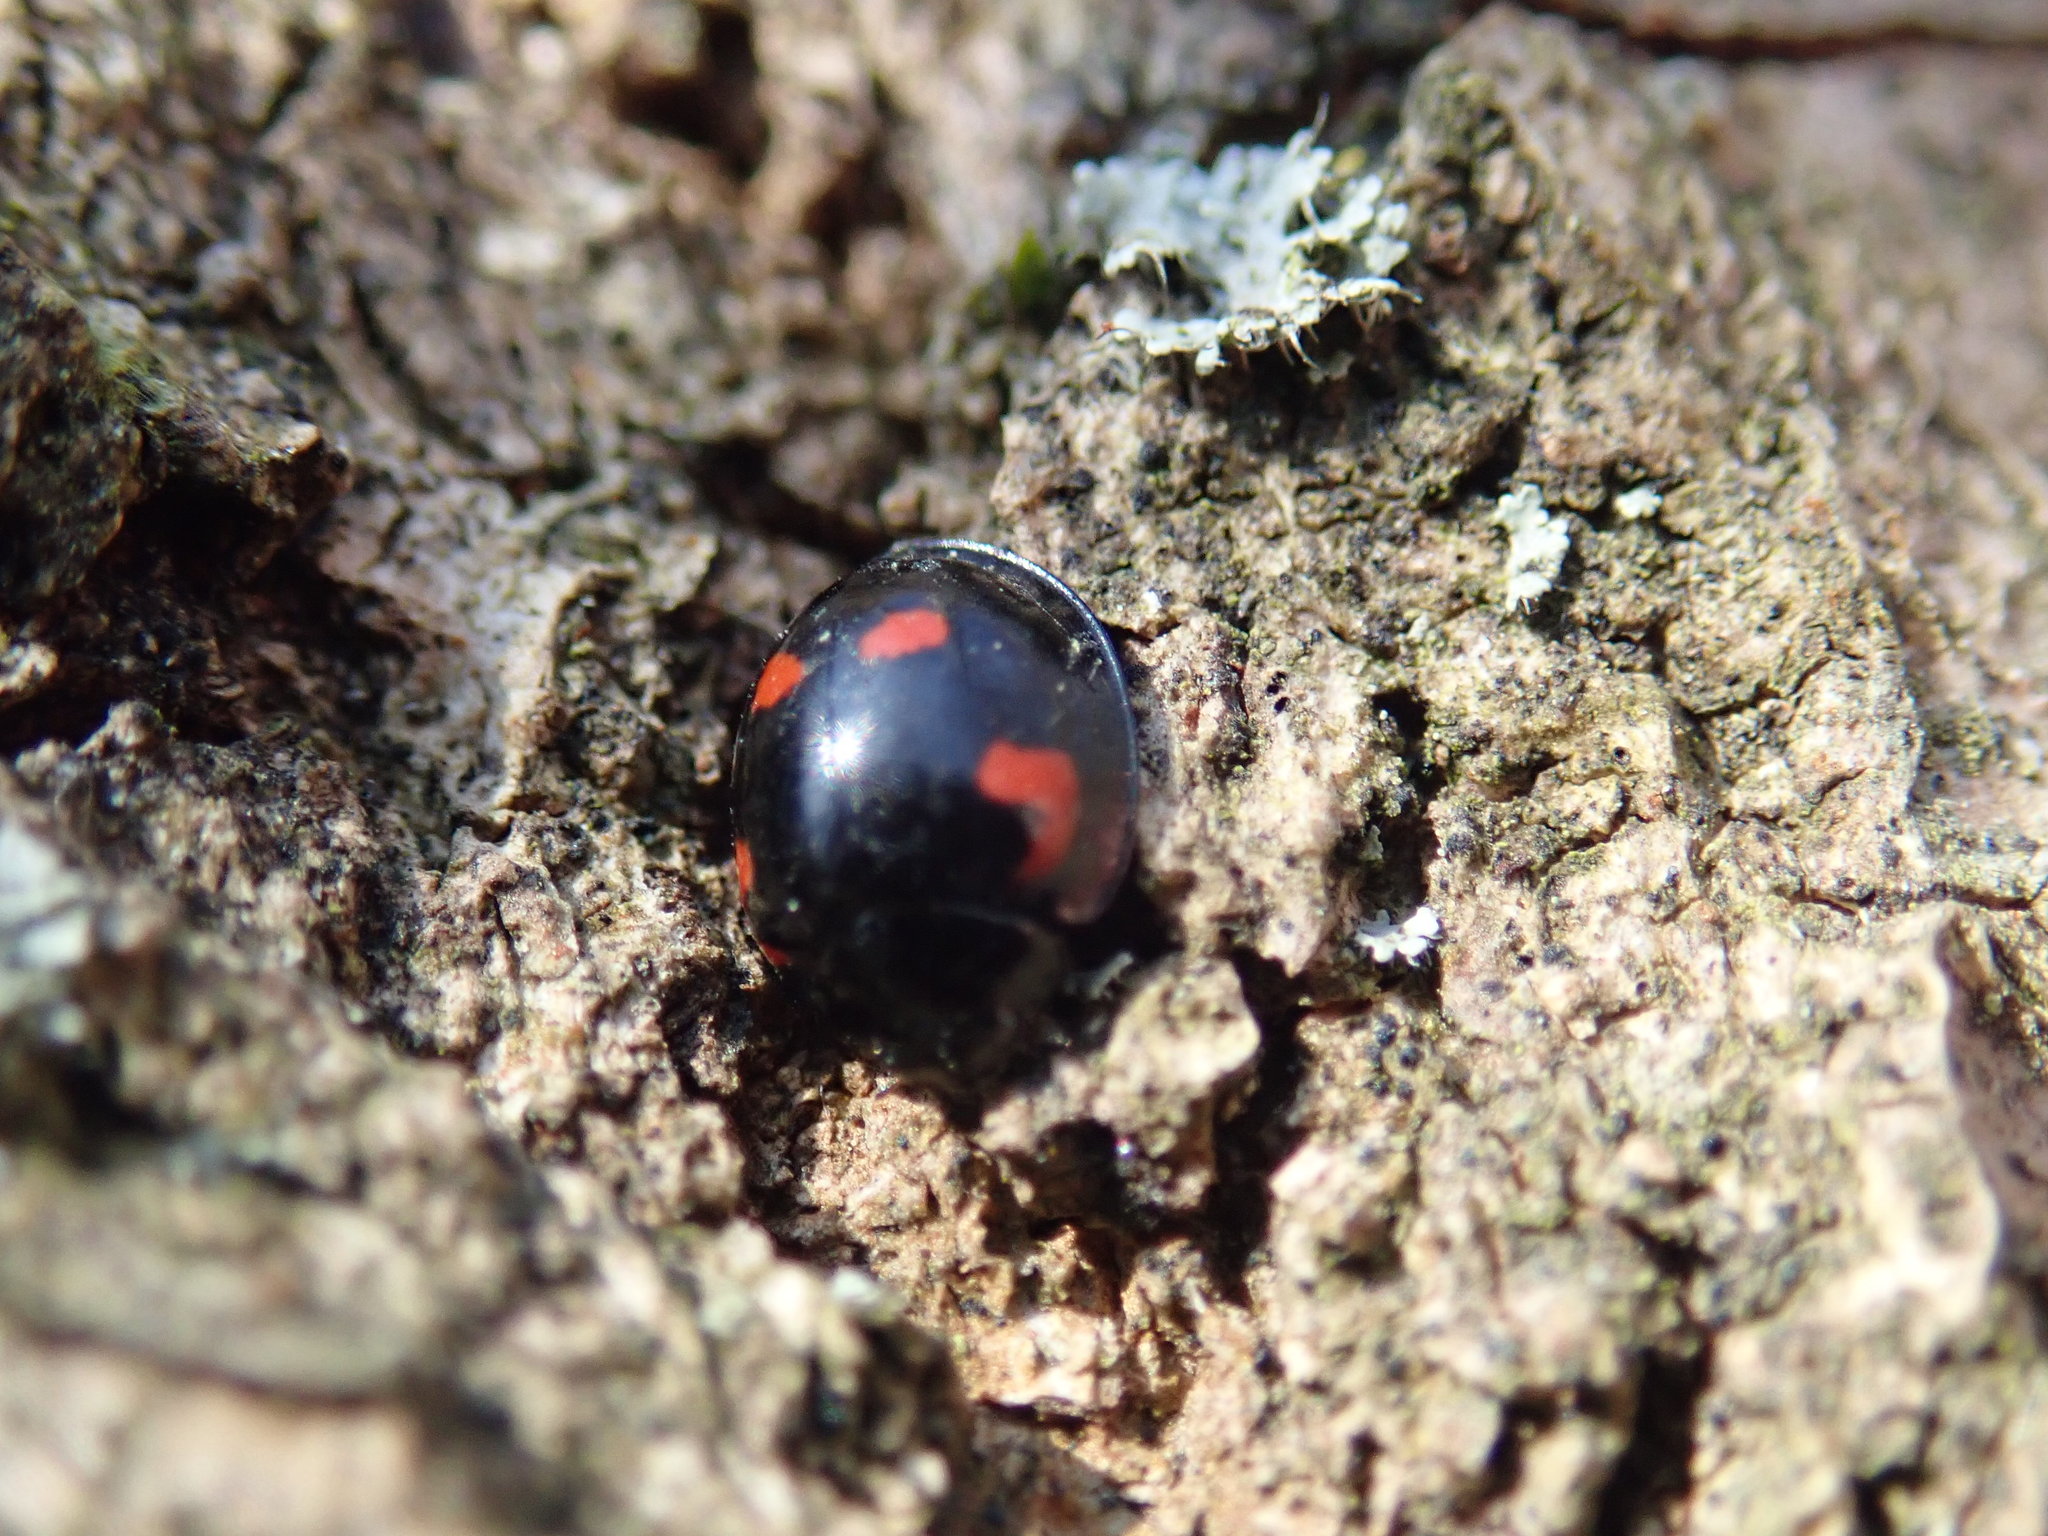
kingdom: Animalia
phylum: Arthropoda
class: Insecta
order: Coleoptera
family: Coccinellidae
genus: Brumus
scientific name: Brumus quadripustulatus
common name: Ladybird beetle
